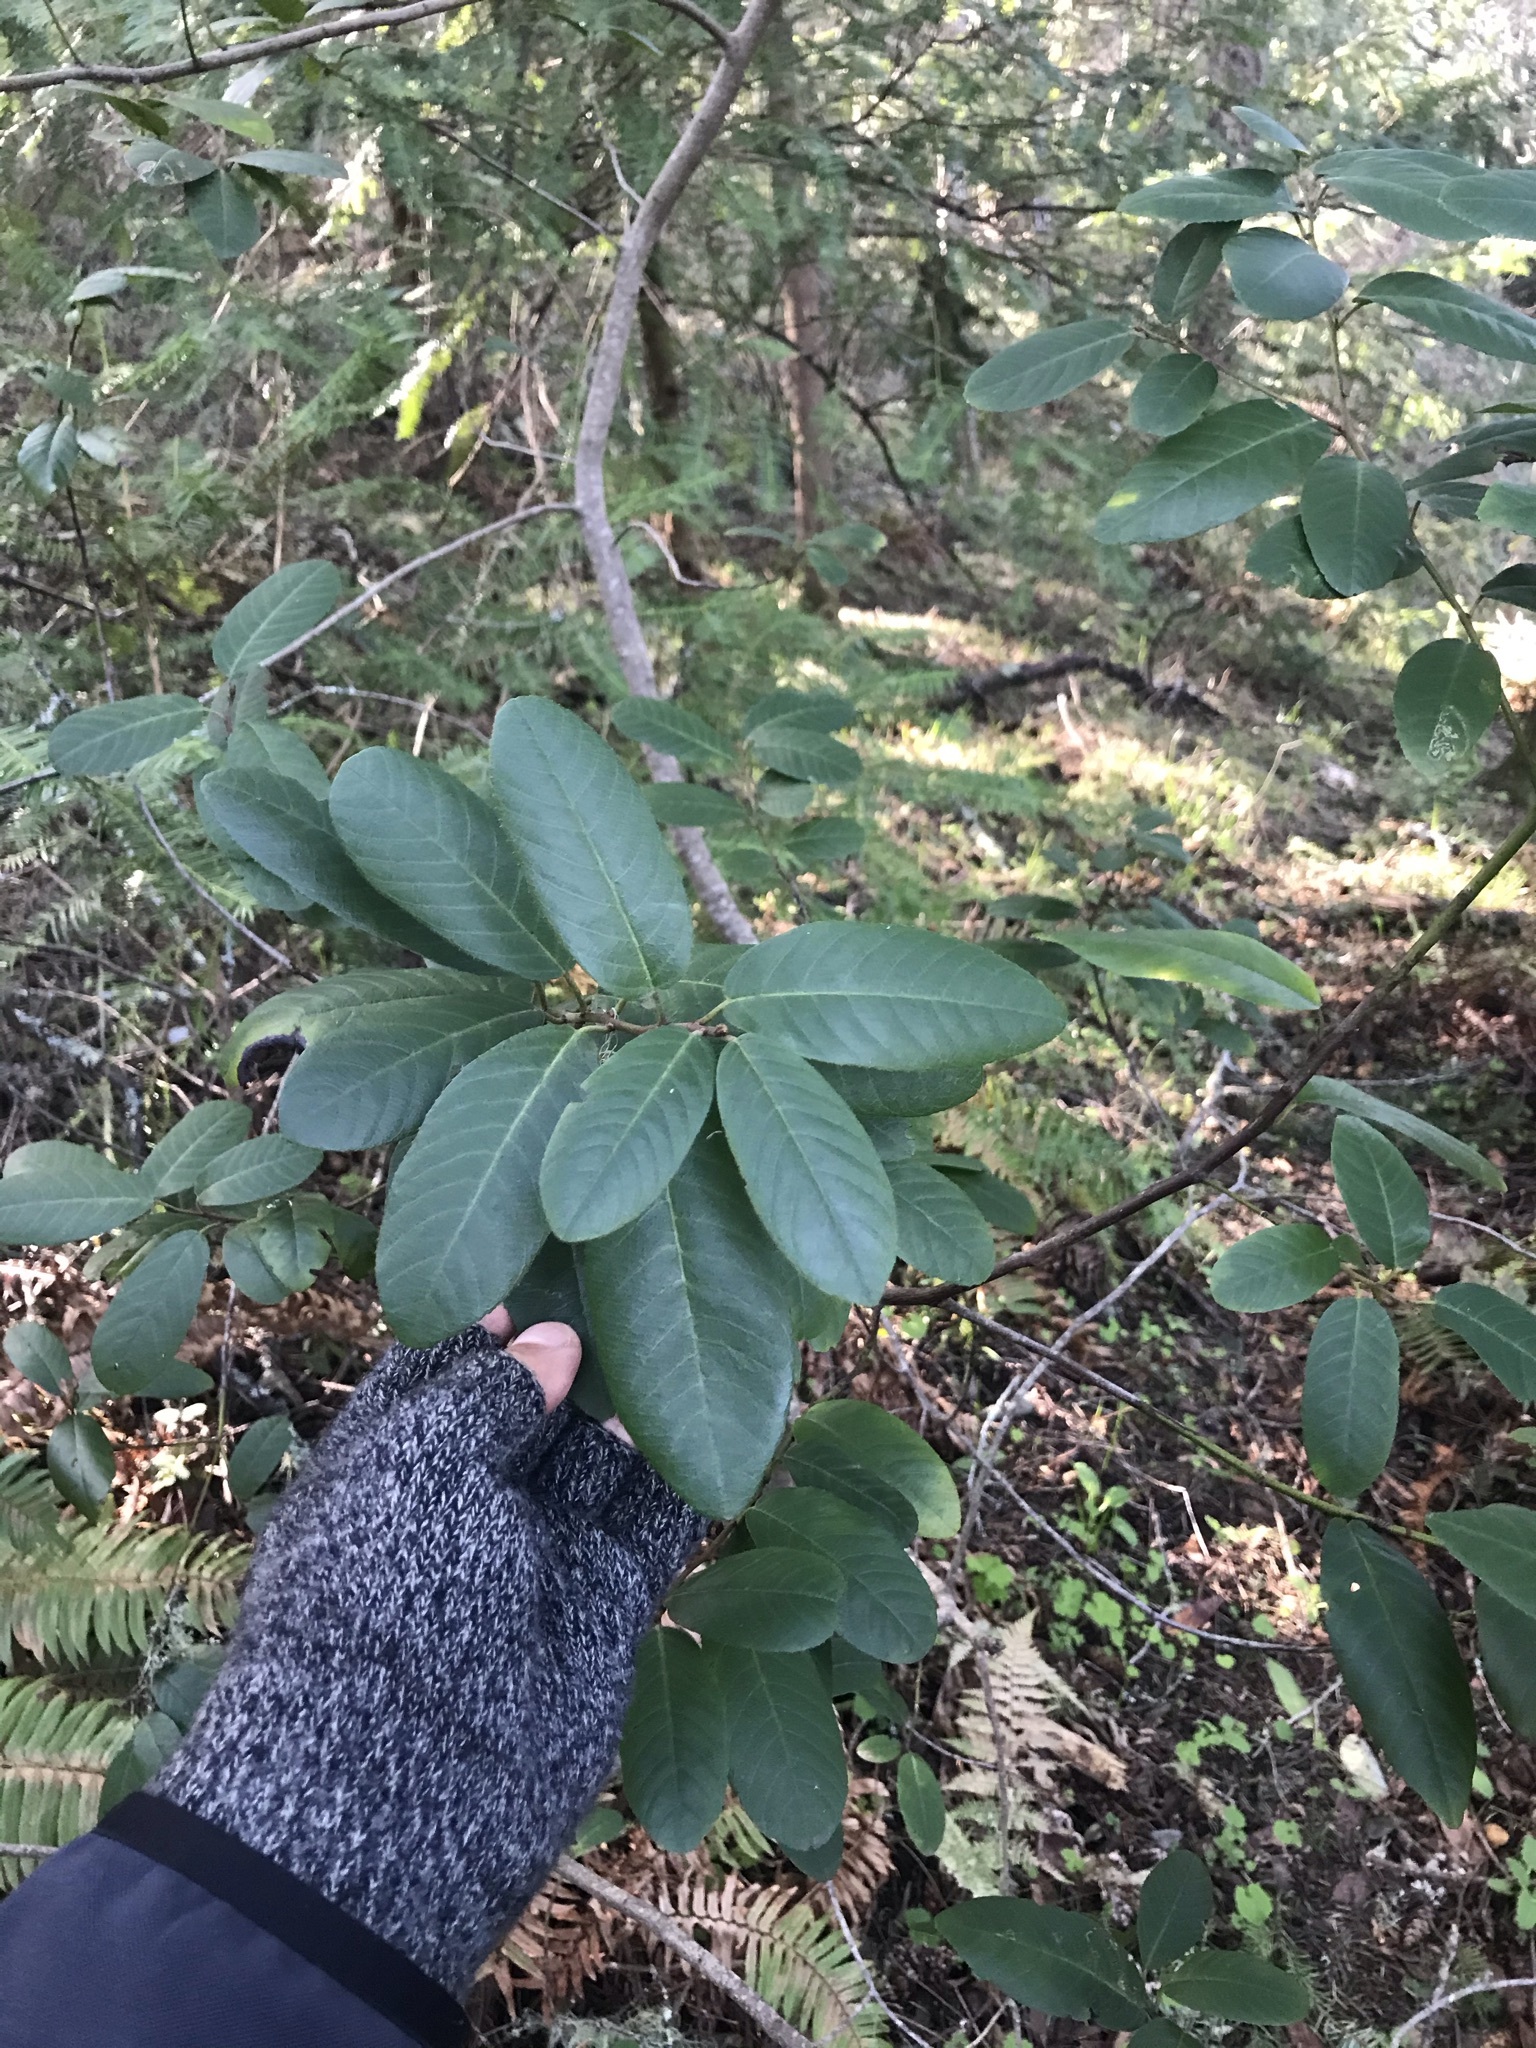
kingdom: Plantae
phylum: Tracheophyta
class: Magnoliopsida
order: Rosales
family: Rhamnaceae
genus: Frangula
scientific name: Frangula californica
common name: California buckthorn
